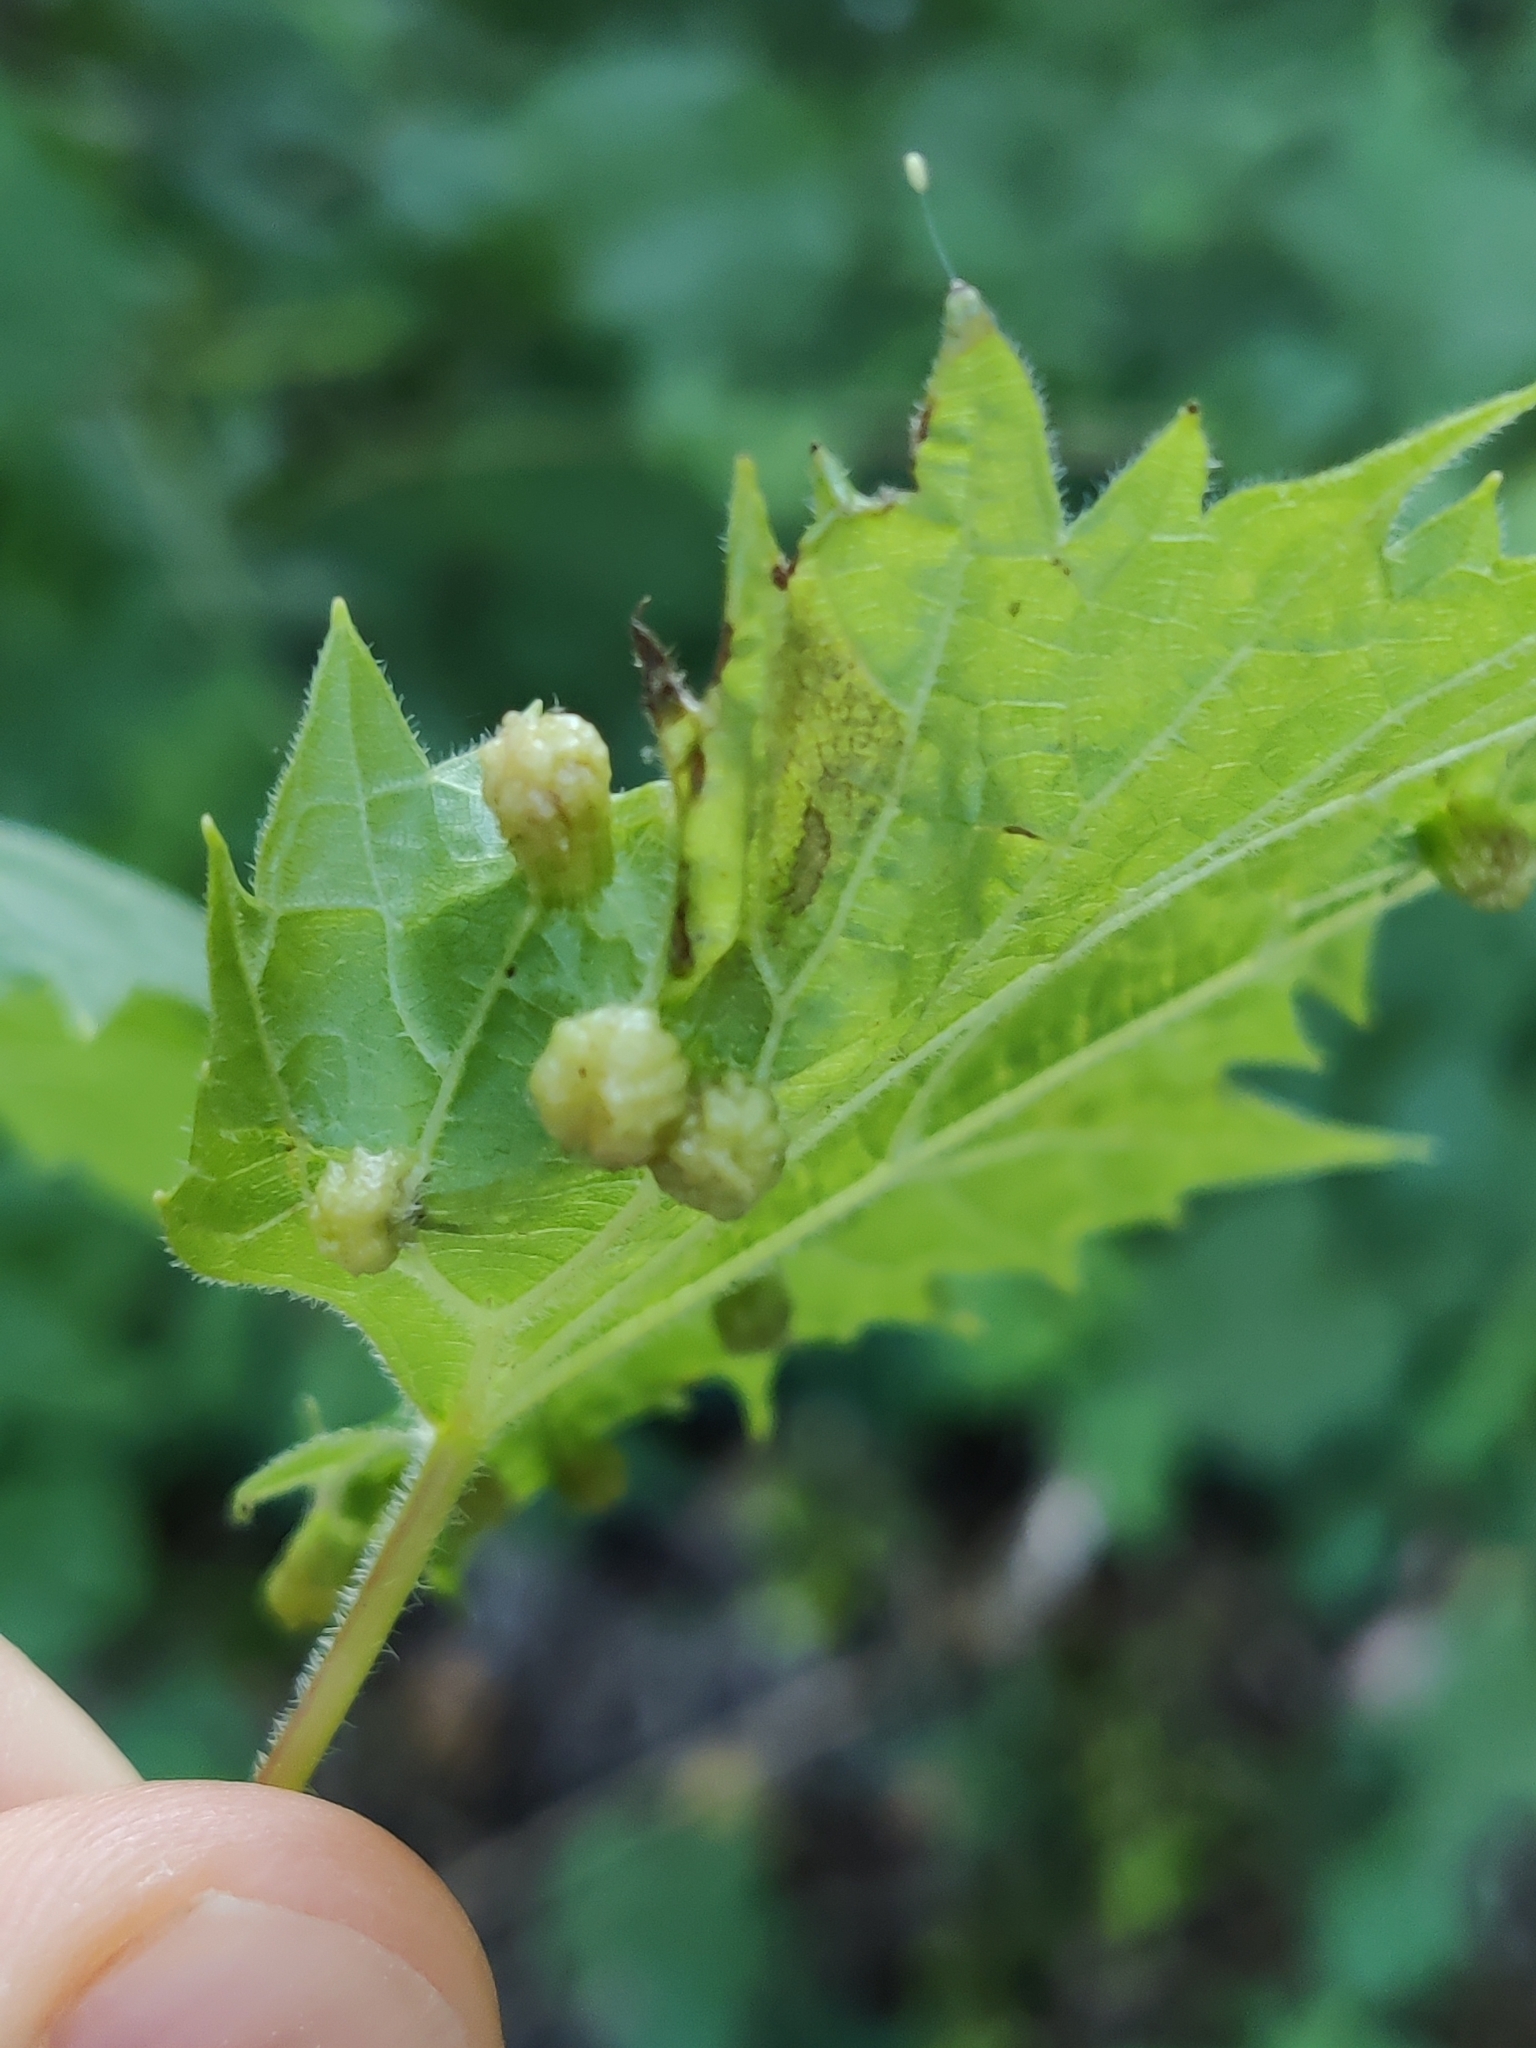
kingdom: Animalia
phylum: Arthropoda
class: Insecta
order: Hemiptera
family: Phylloxeridae
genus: Daktulosphaira
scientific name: Daktulosphaira vitifoliae
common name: Grape phylloxera
